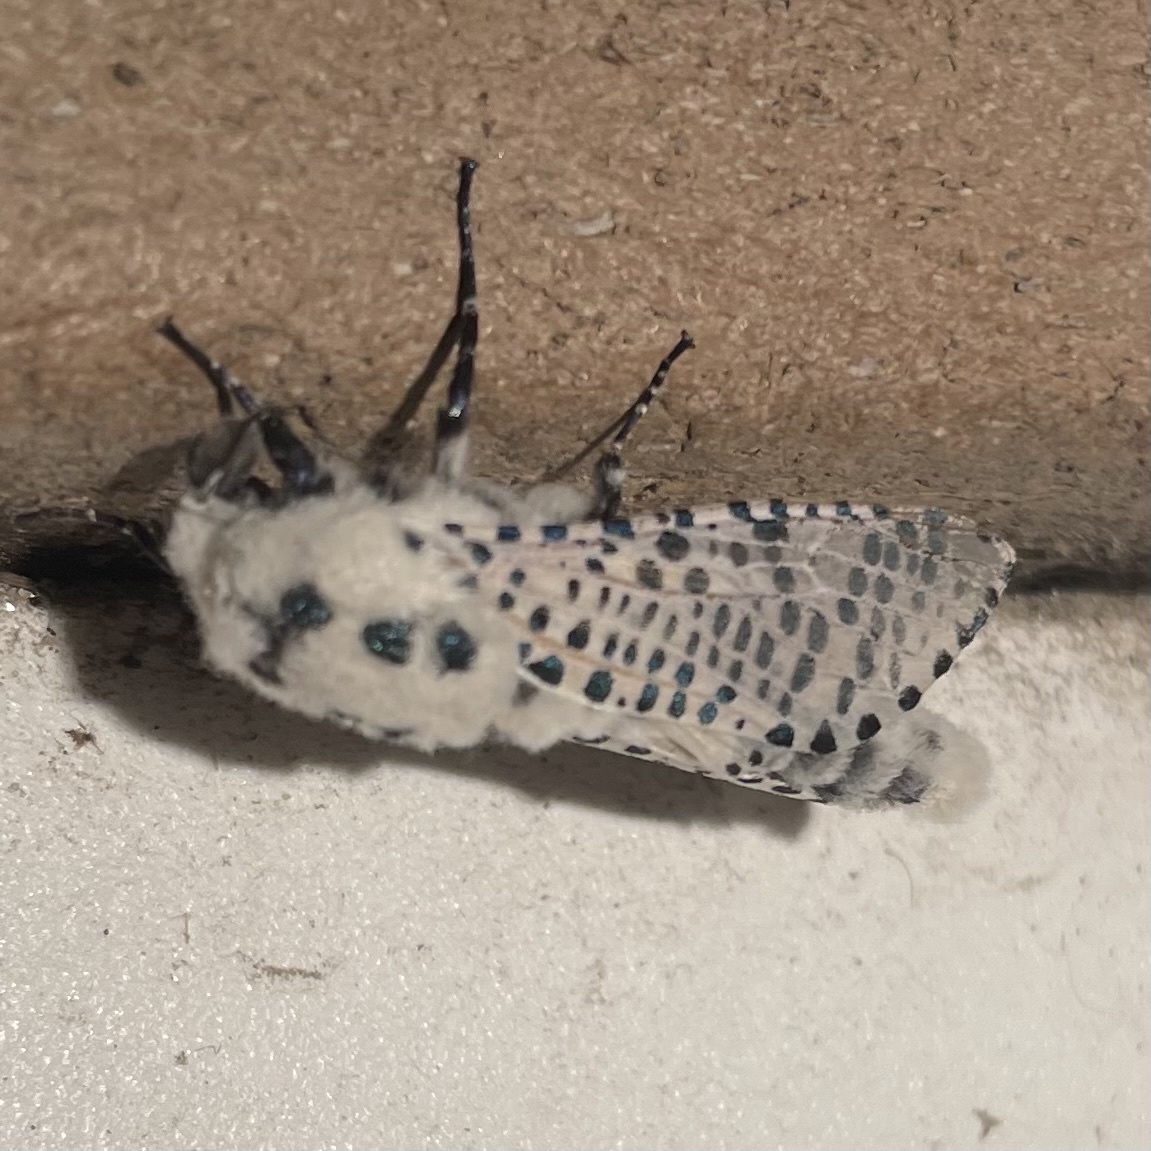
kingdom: Animalia
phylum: Arthropoda
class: Insecta
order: Lepidoptera
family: Cossidae
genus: Zeuzera
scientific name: Zeuzera pyrina
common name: Leopard moth
